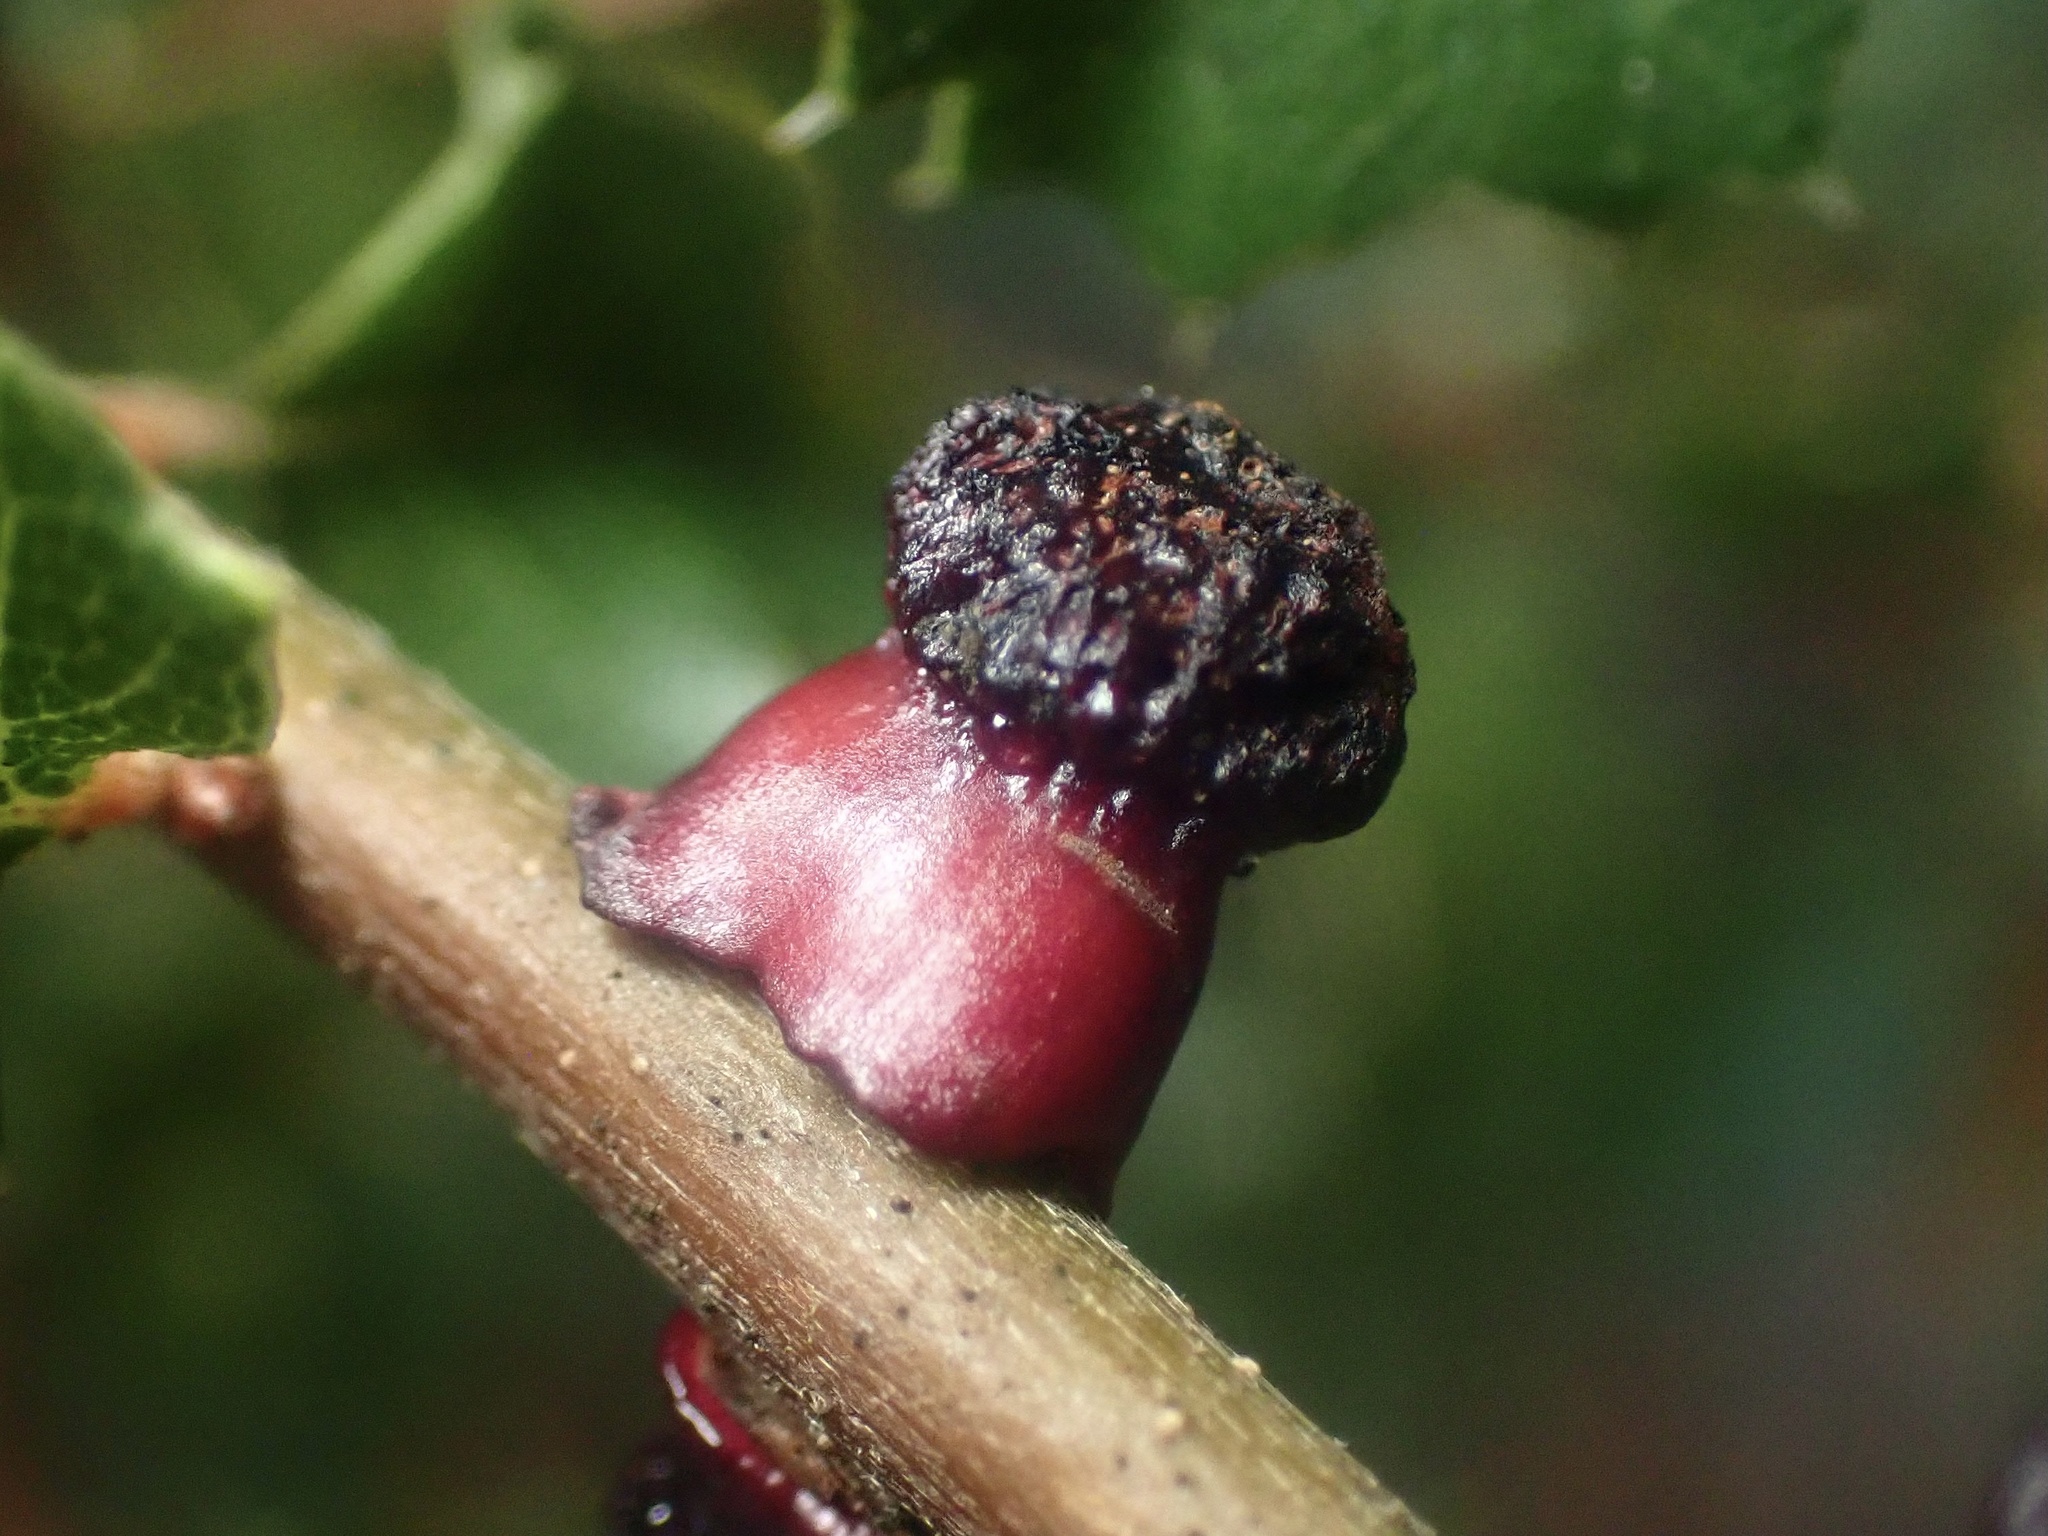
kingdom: Animalia
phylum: Arthropoda
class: Insecta
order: Hymenoptera
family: Cynipidae
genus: Disholcaspis
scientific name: Disholcaspis prehensa
